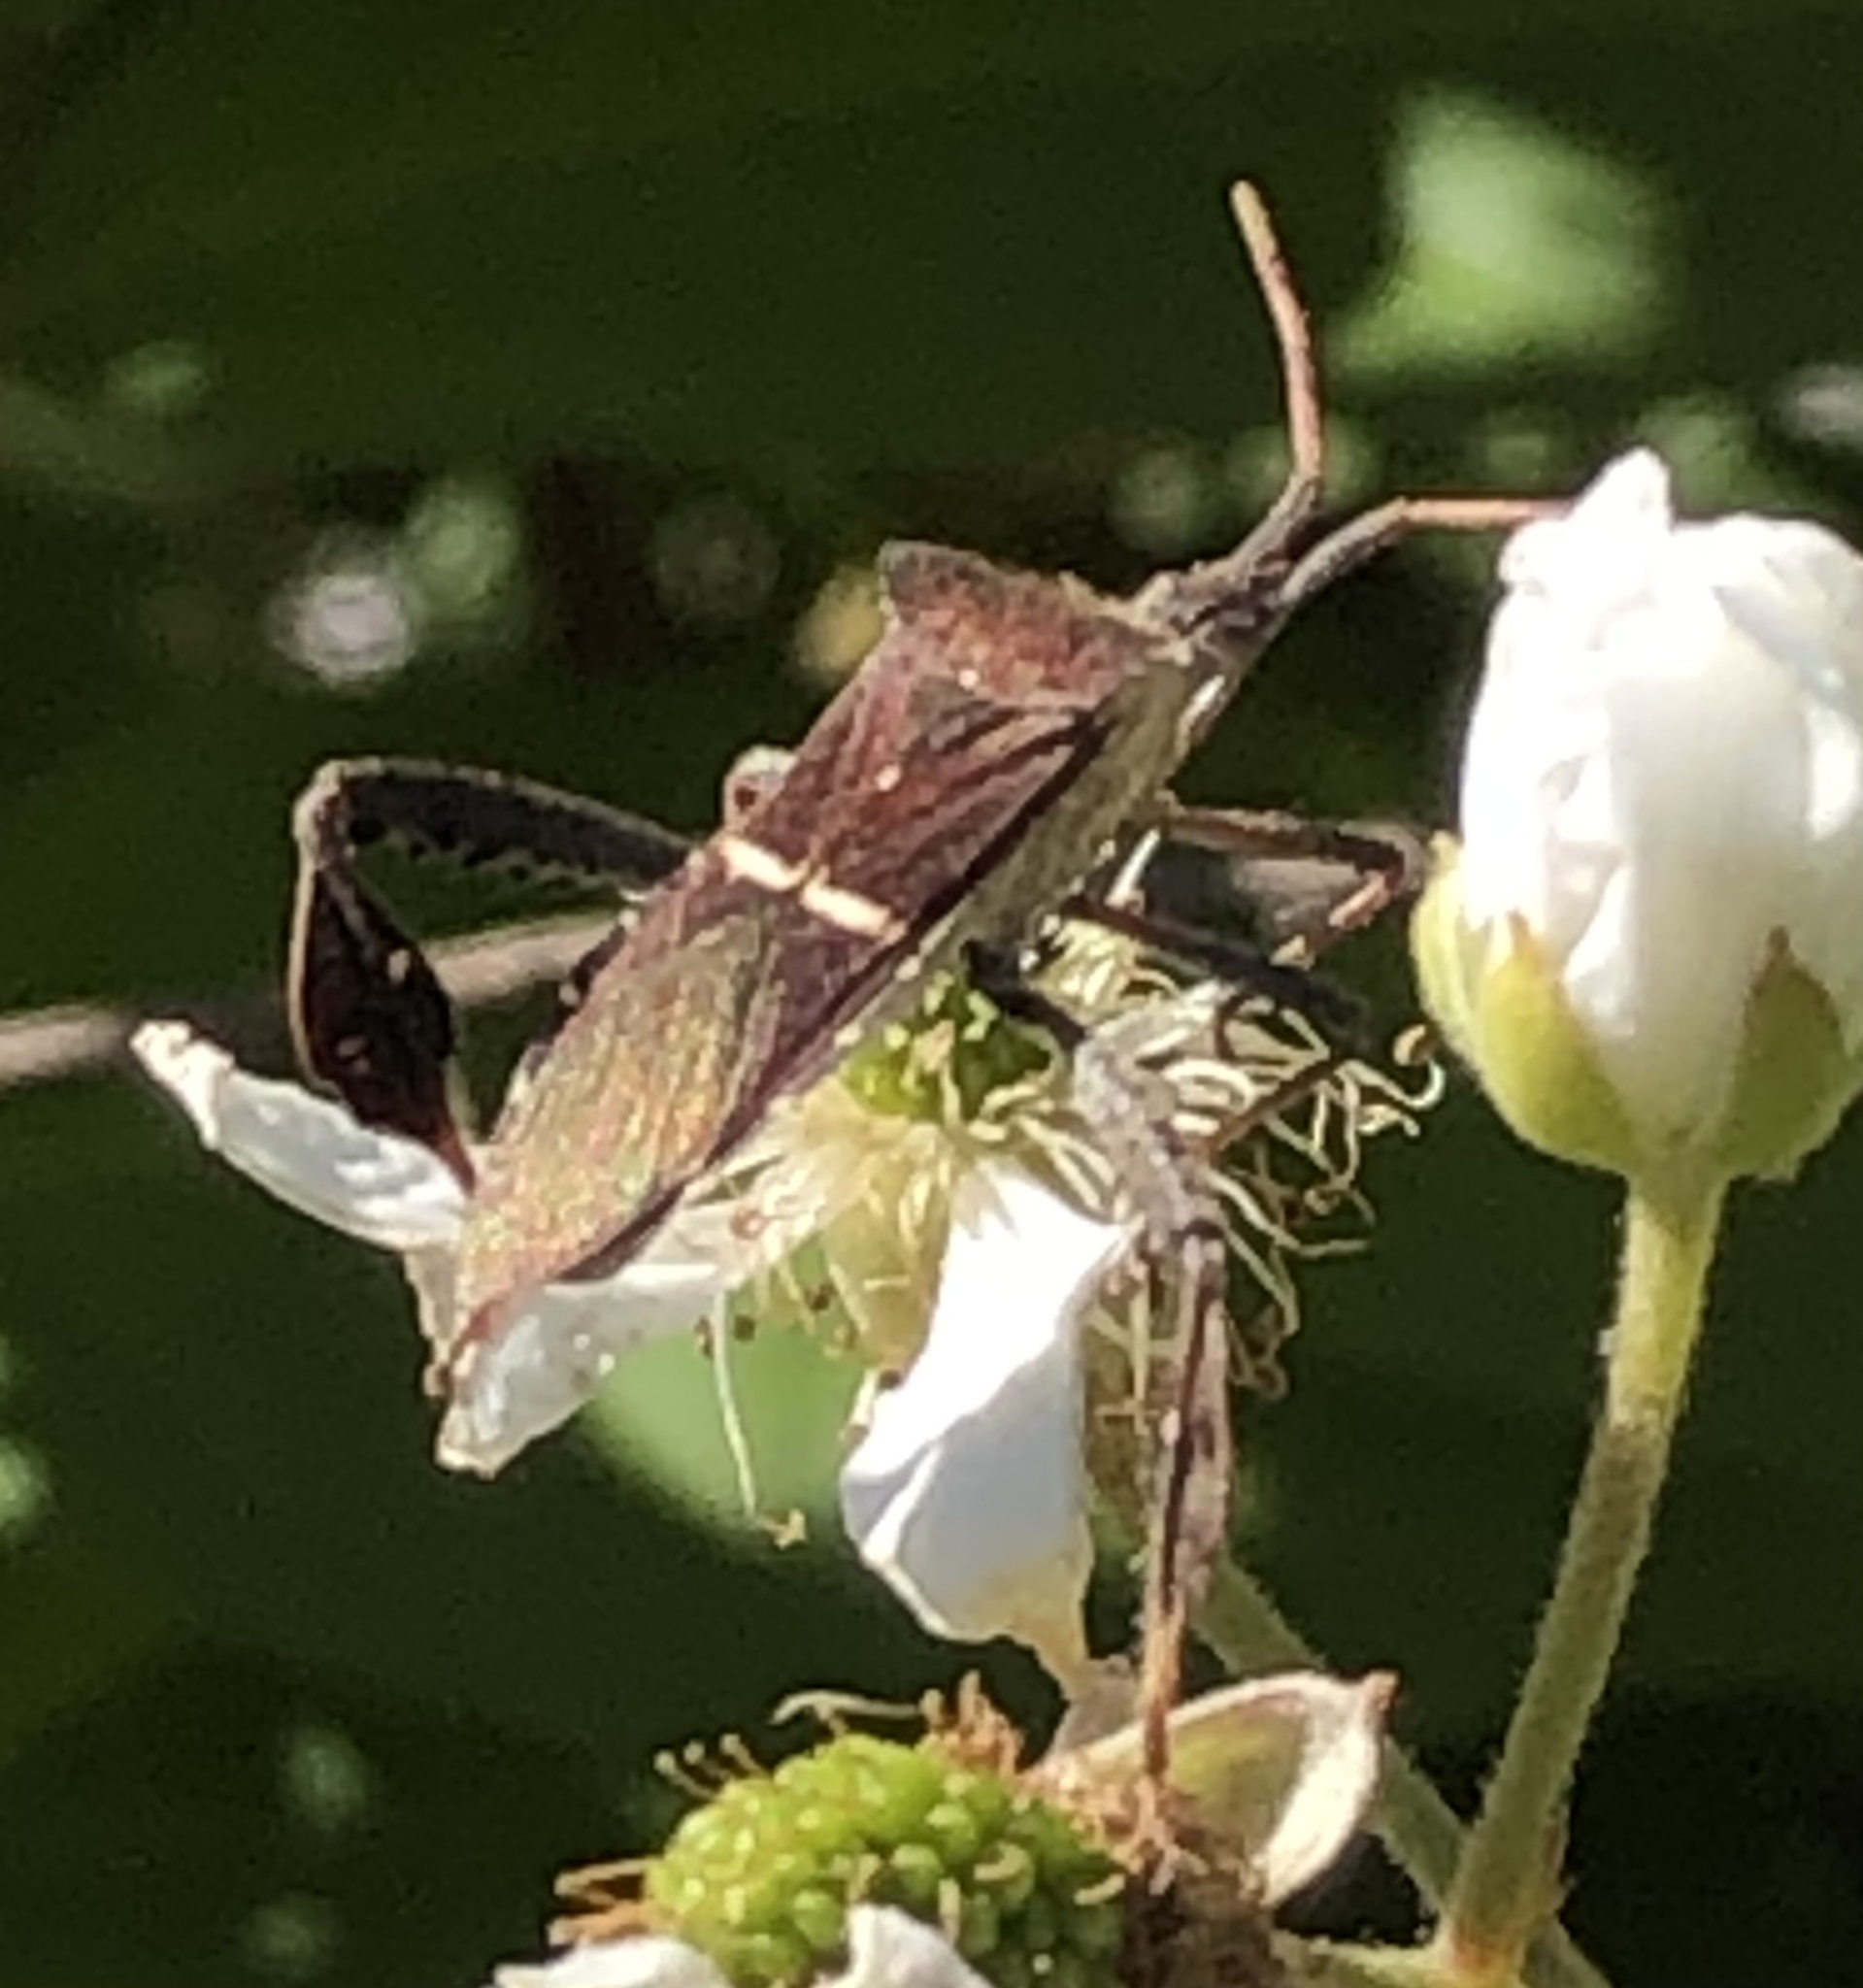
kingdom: Animalia
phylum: Arthropoda
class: Insecta
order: Hemiptera
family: Coreidae
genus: Leptoglossus
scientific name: Leptoglossus phyllopus
